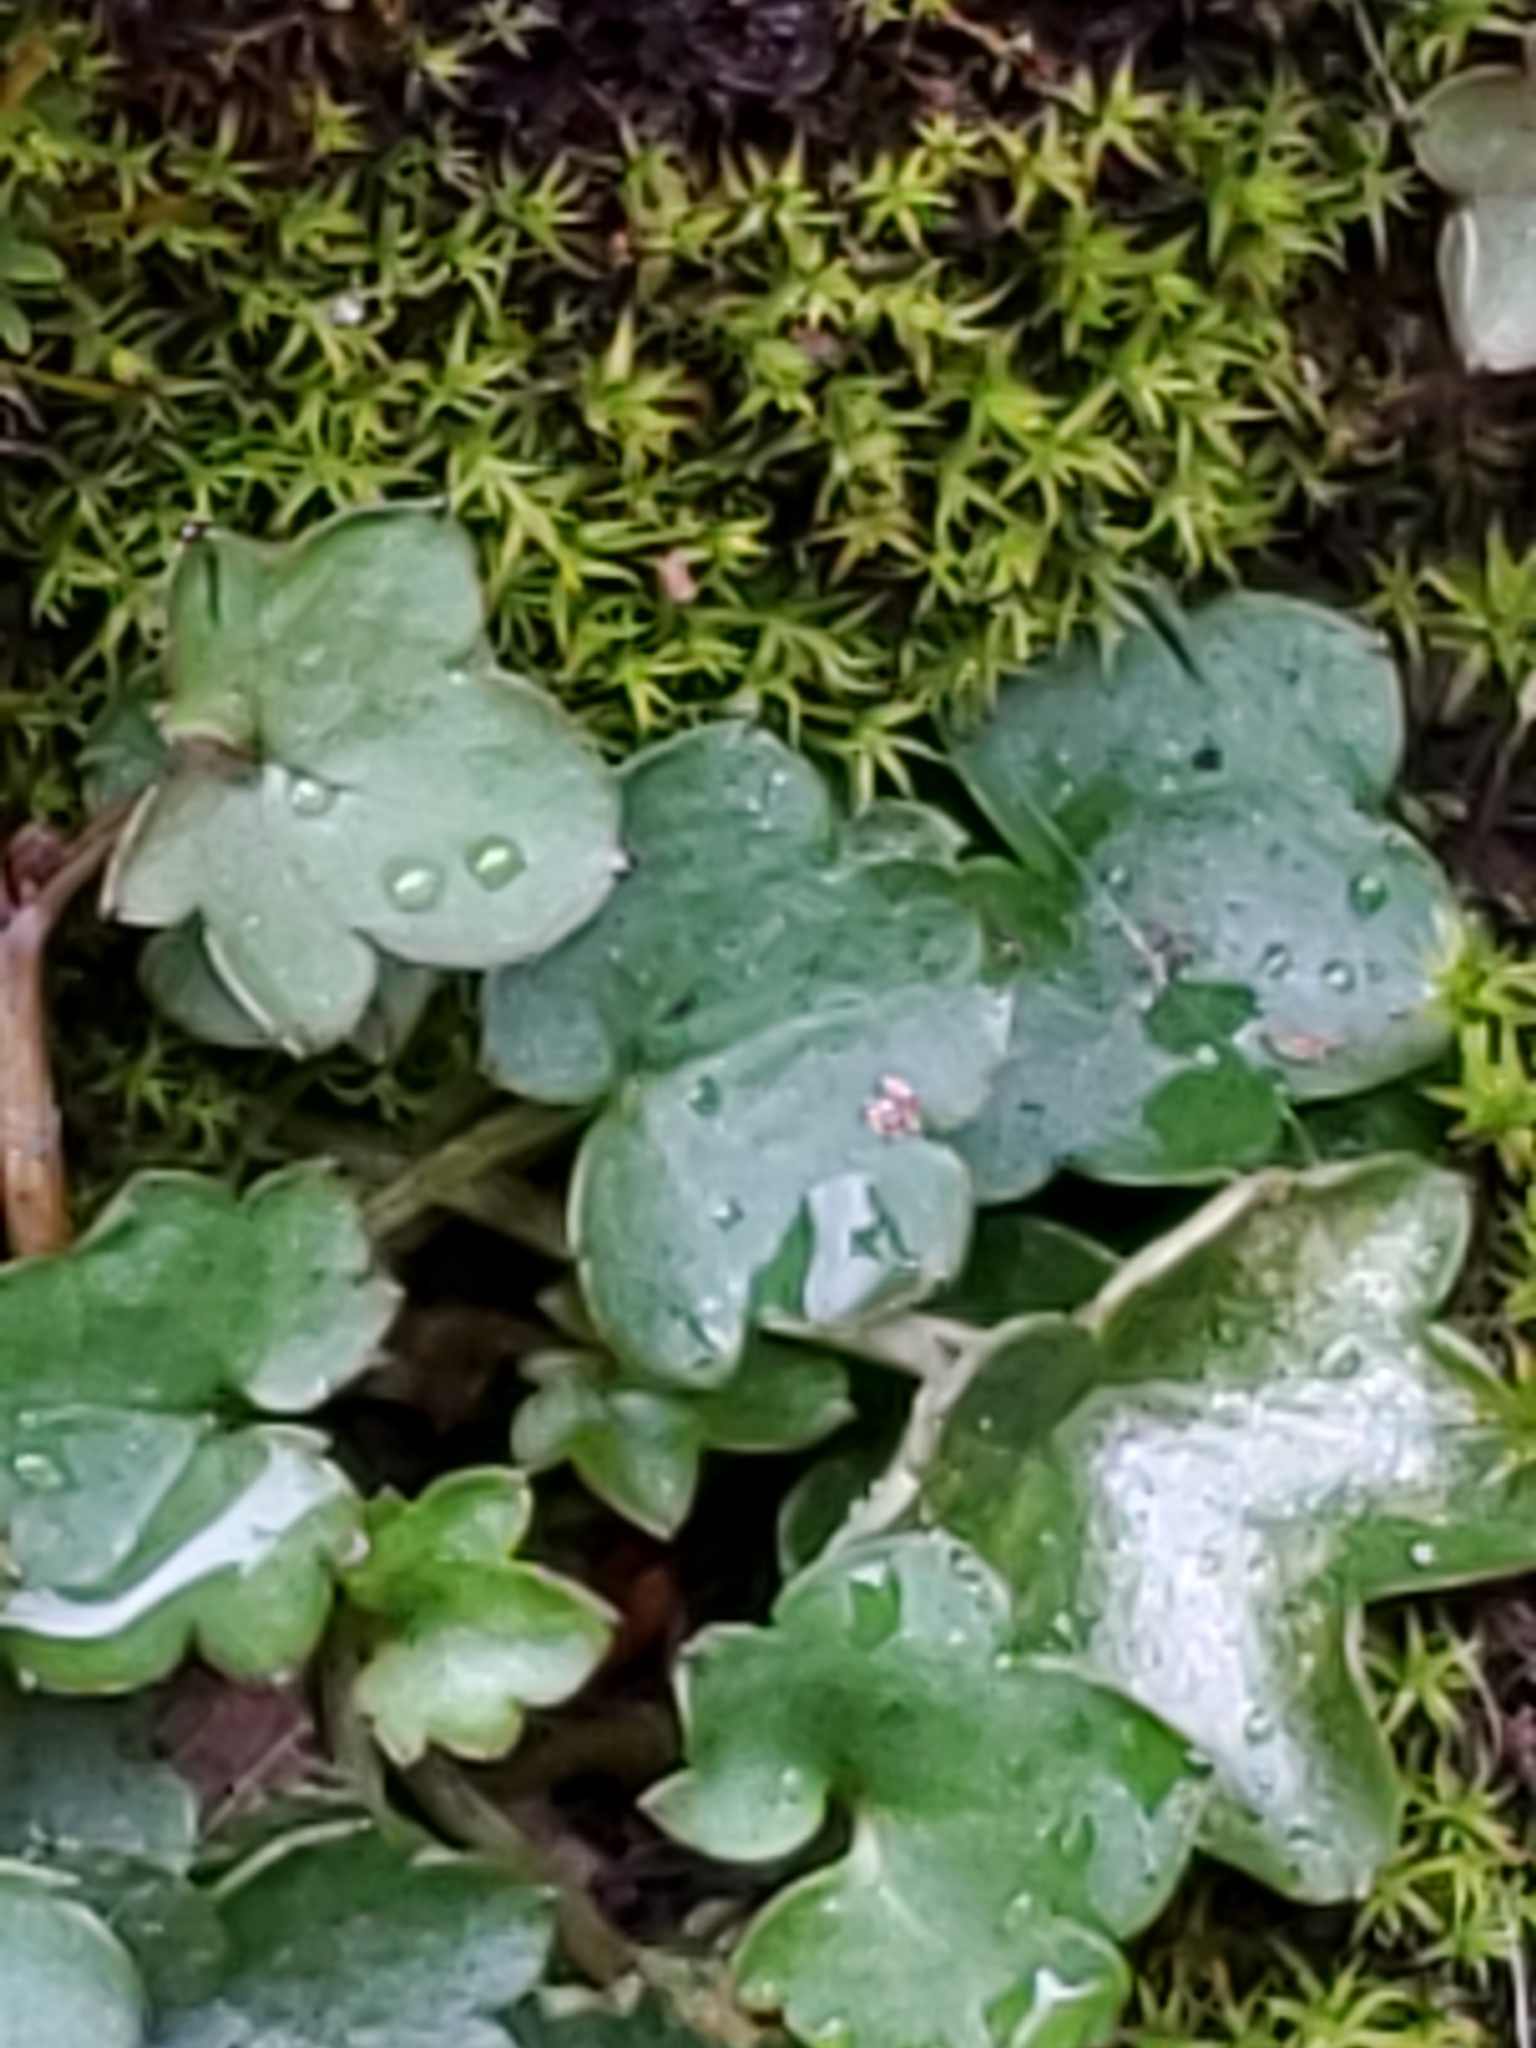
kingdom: Plantae
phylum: Tracheophyta
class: Magnoliopsida
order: Lamiales
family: Plantaginaceae
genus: Cymbalaria
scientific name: Cymbalaria muralis
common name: Ivy-leaved toadflax
